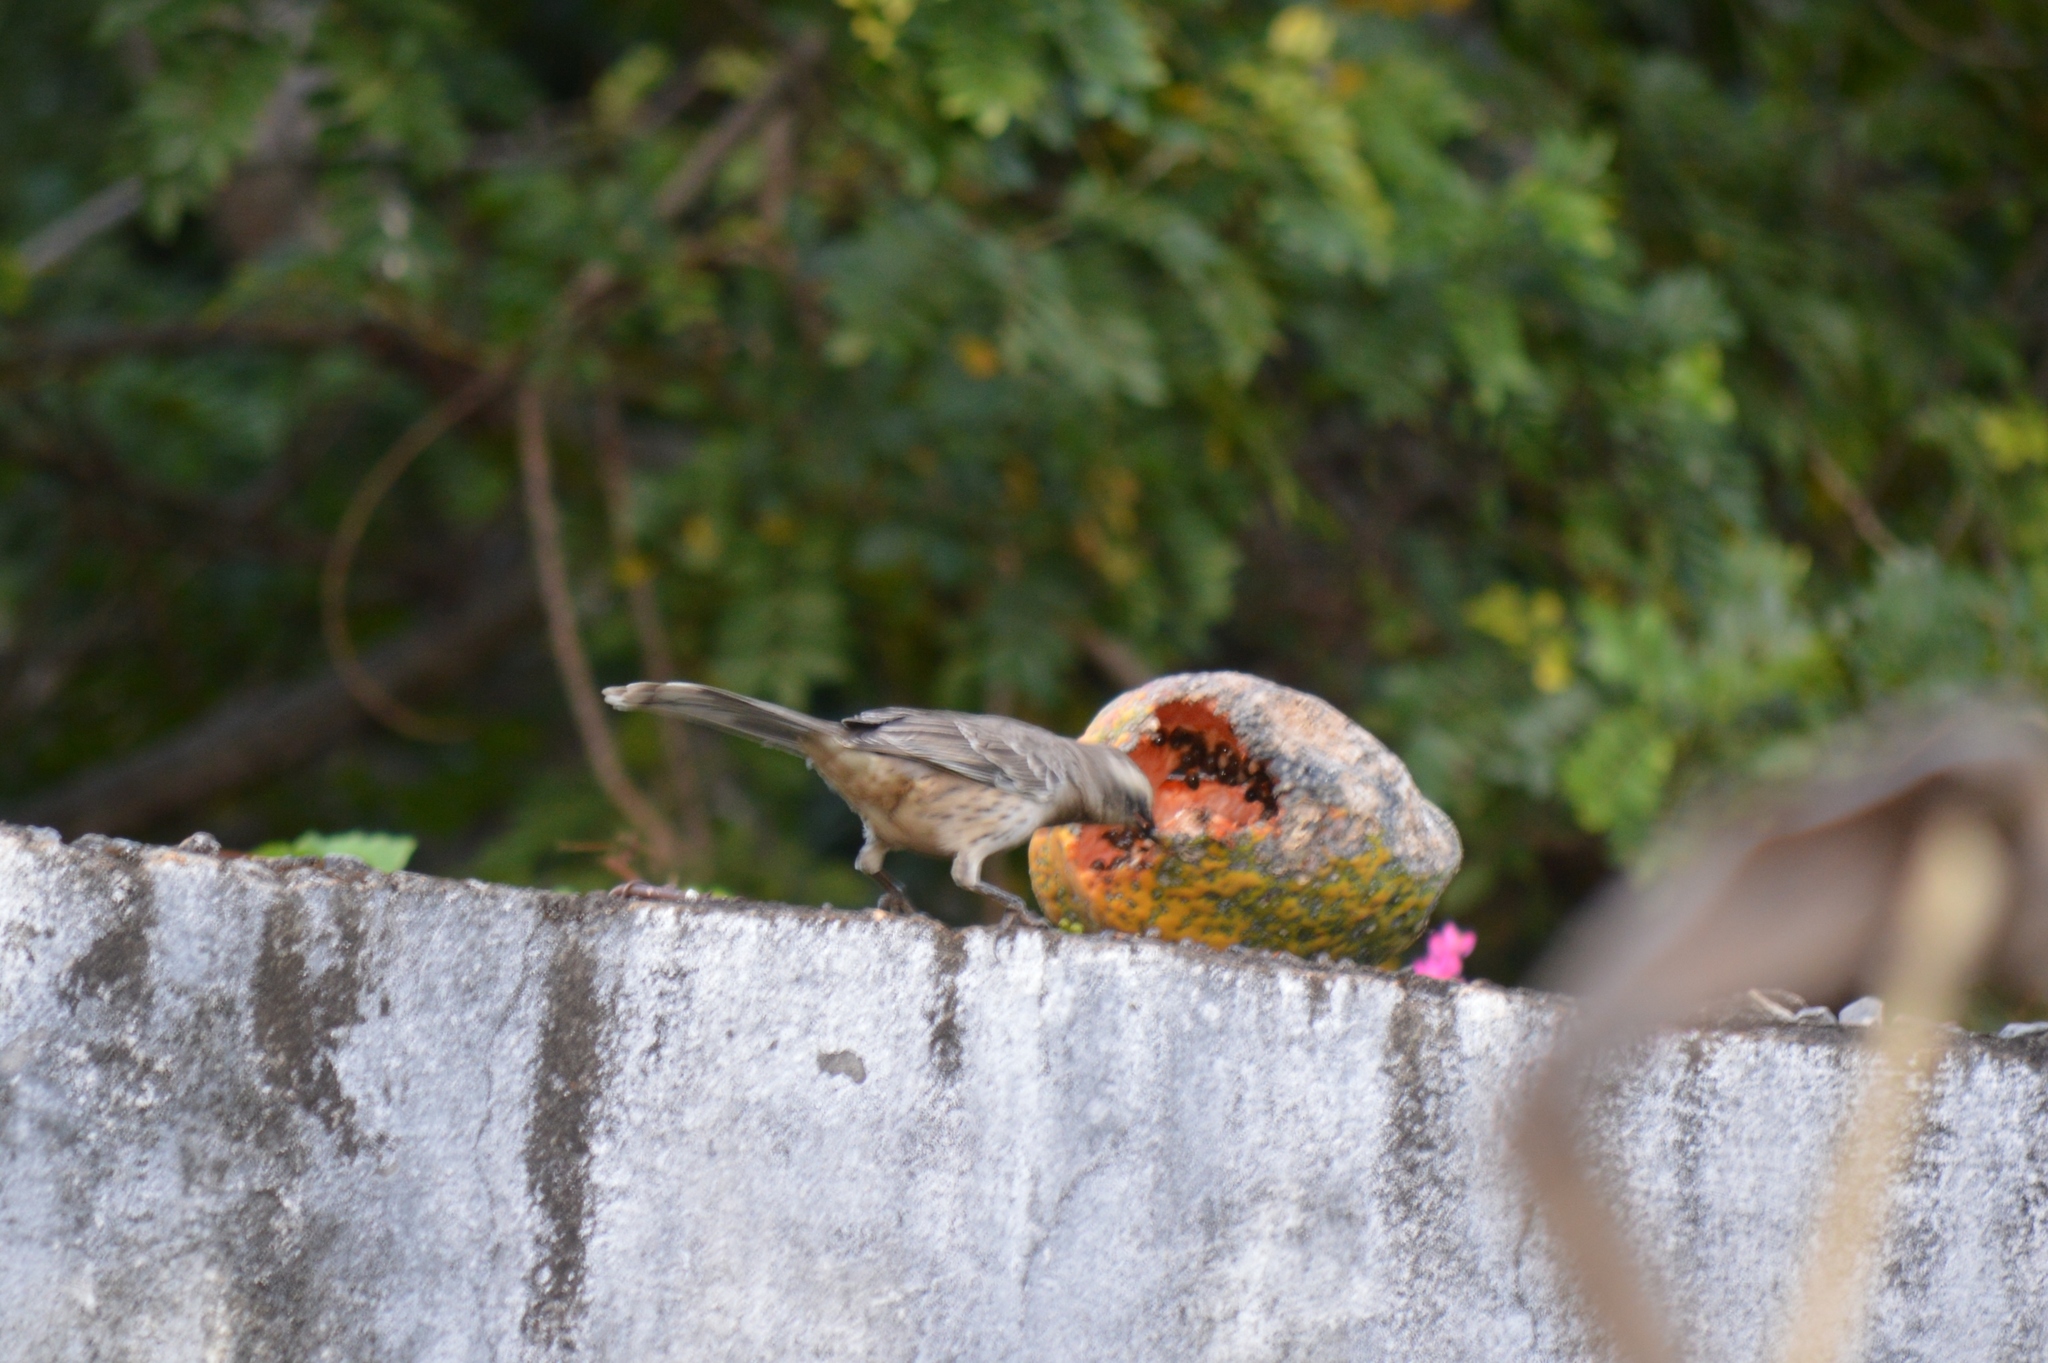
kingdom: Animalia
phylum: Chordata
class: Aves
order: Passeriformes
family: Mimidae
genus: Mimus
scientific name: Mimus saturninus
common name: Chalk-browed mockingbird
